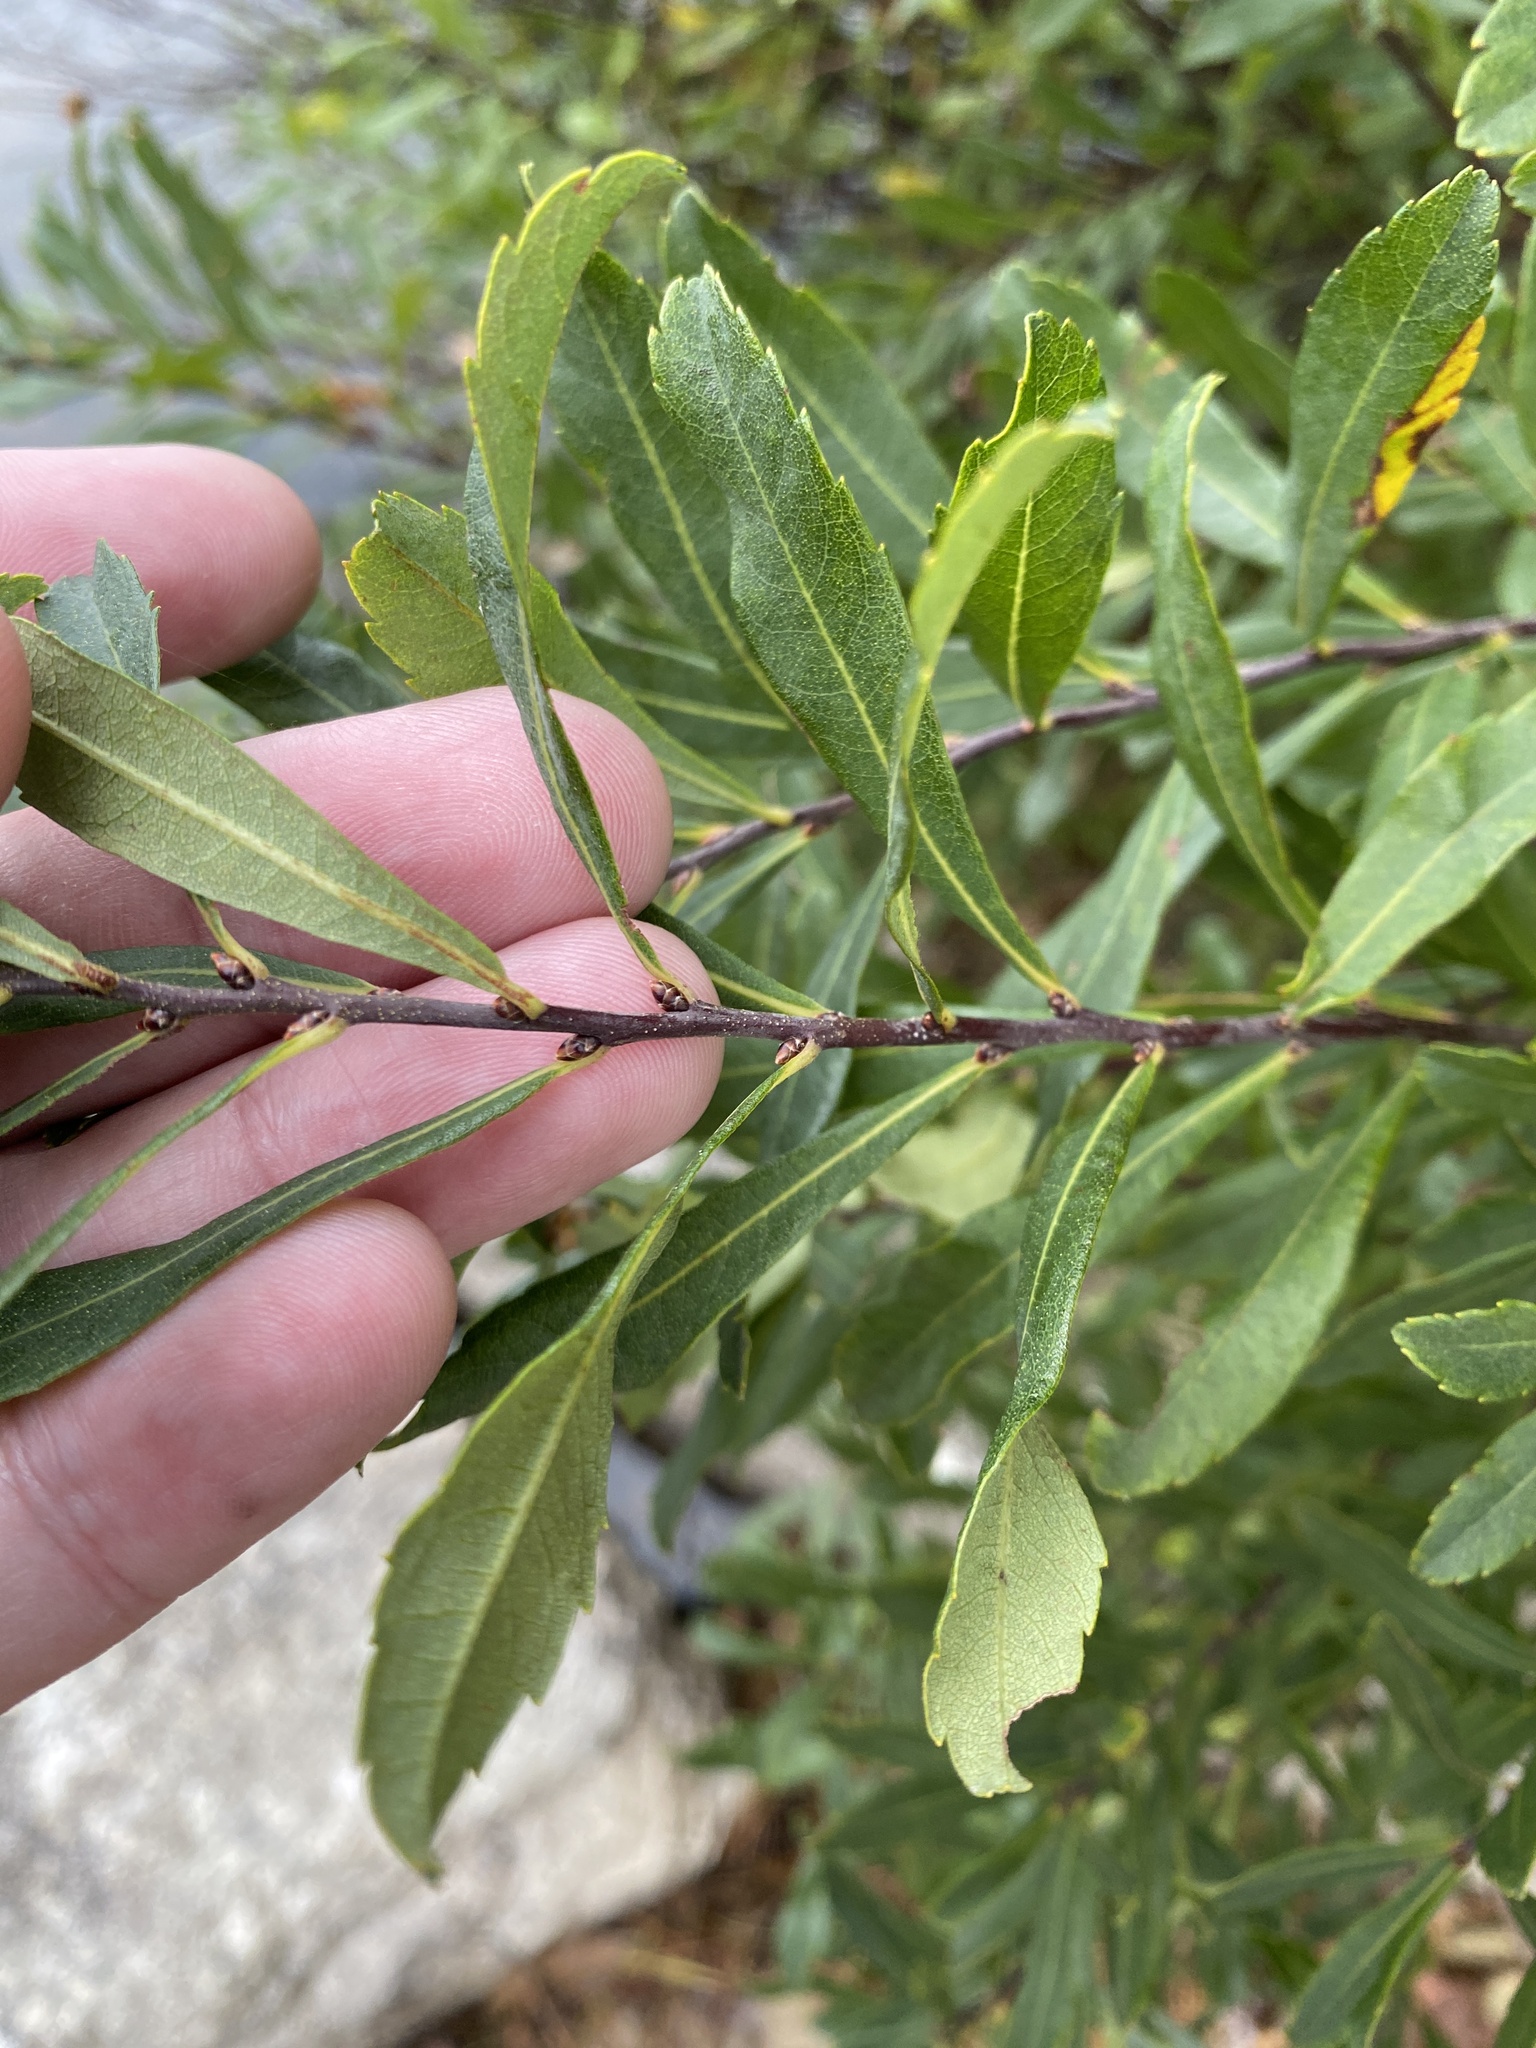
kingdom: Plantae
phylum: Tracheophyta
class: Magnoliopsida
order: Fagales
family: Myricaceae
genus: Myrica
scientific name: Myrica gale
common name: Sweet gale
